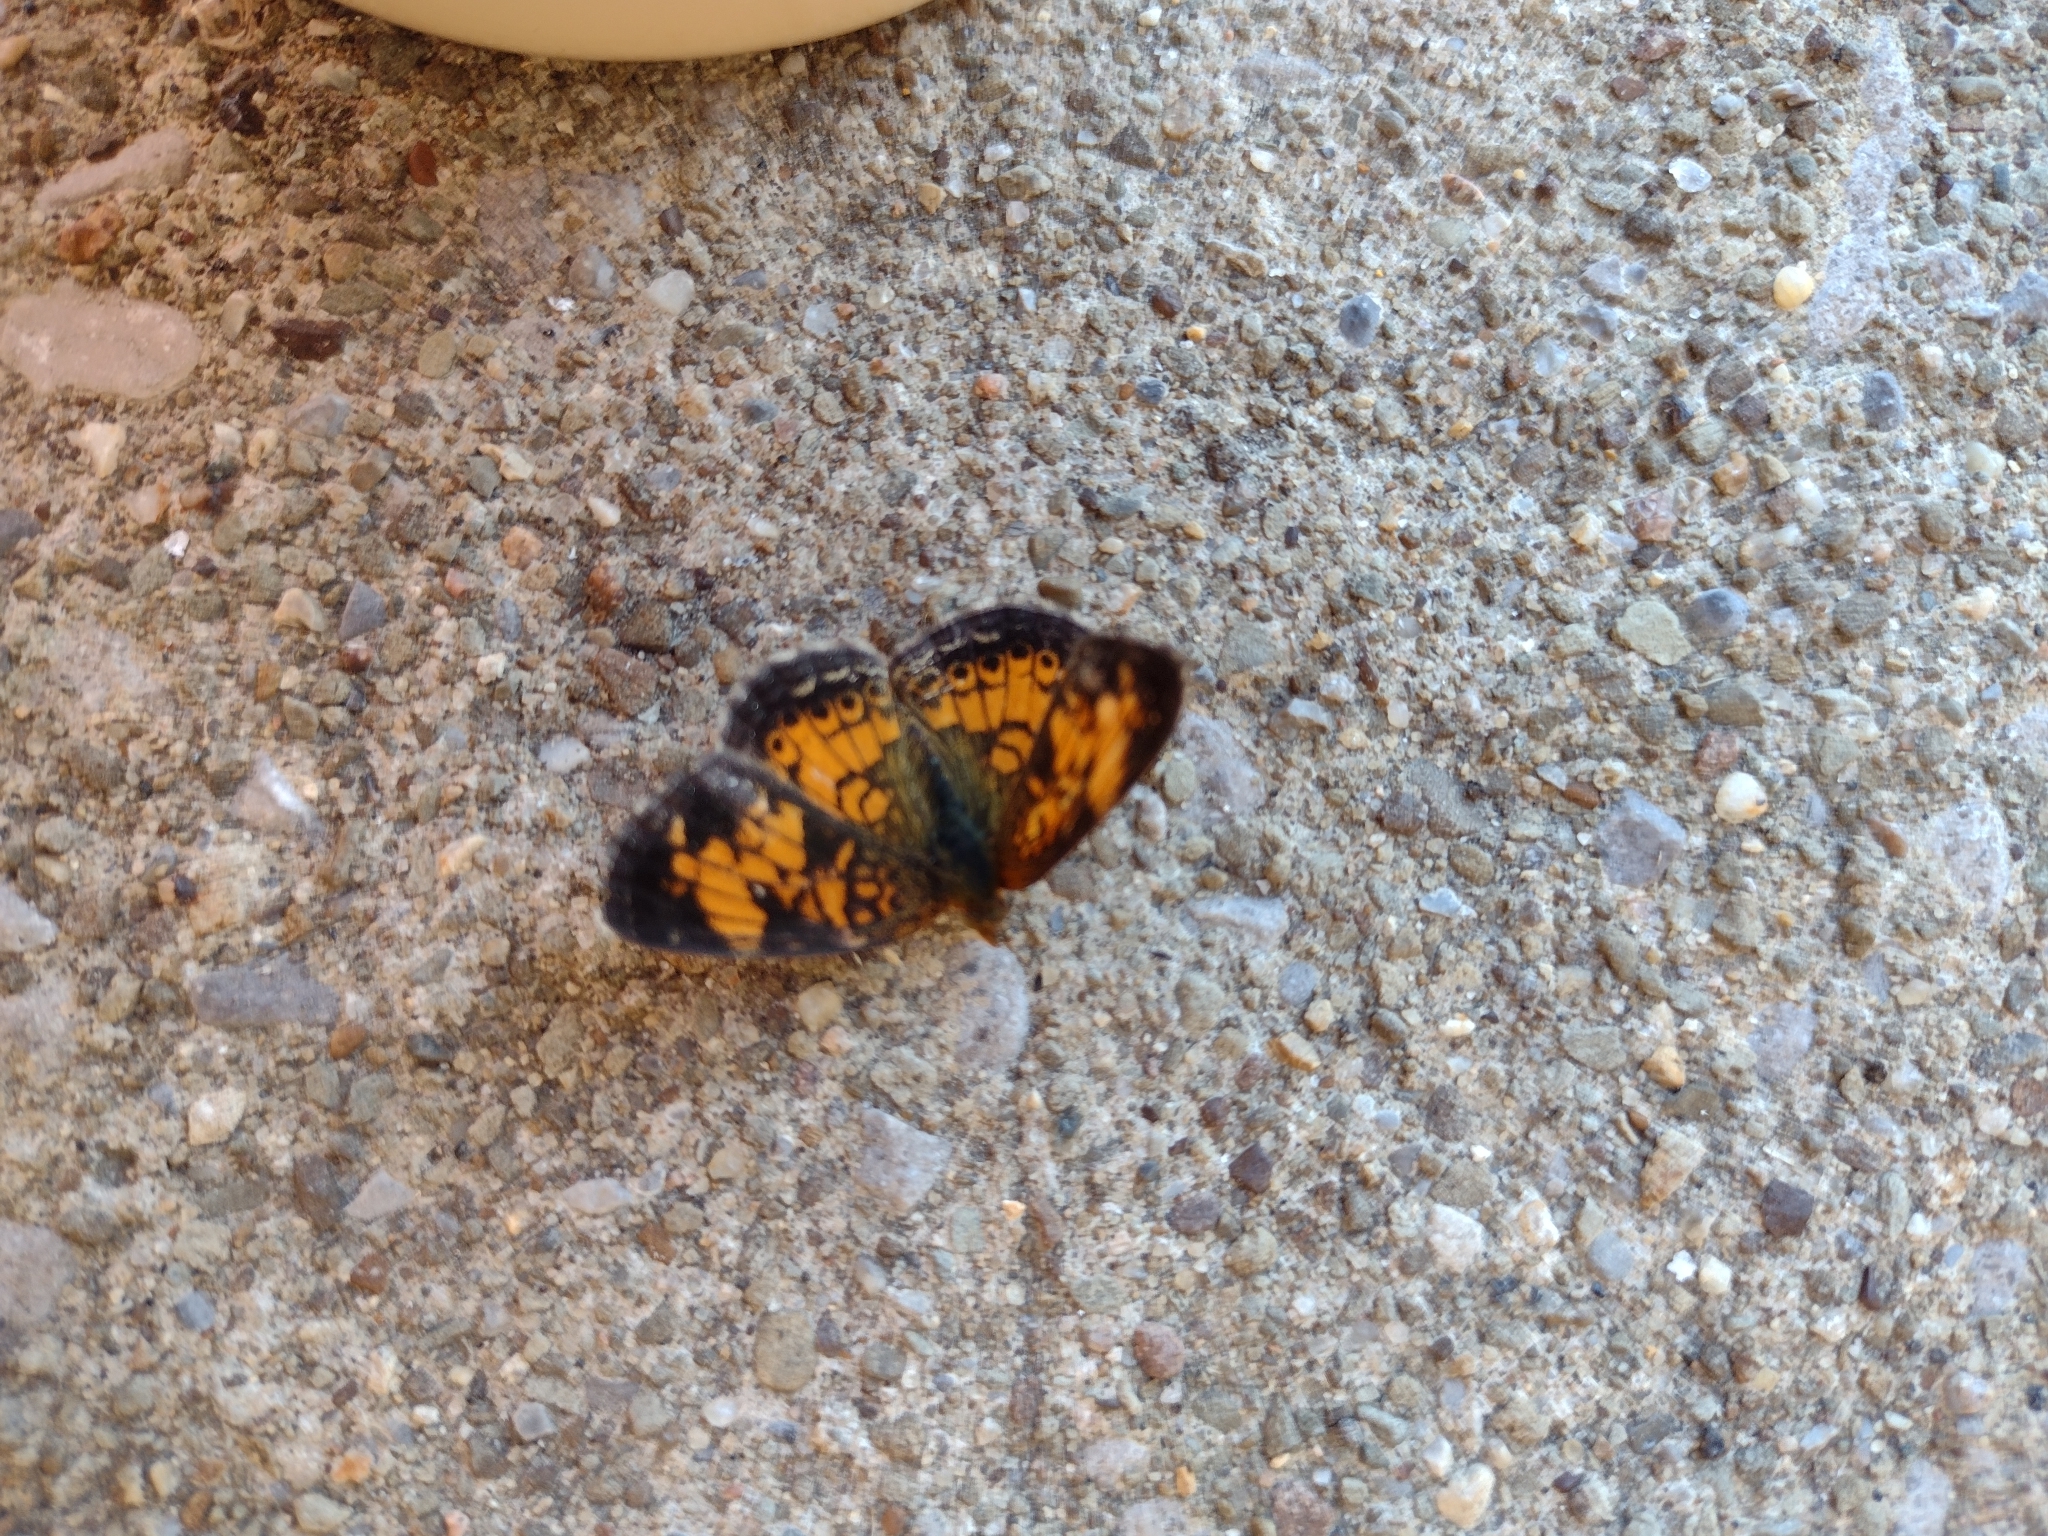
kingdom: Animalia
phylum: Arthropoda
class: Insecta
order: Lepidoptera
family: Nymphalidae
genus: Phyciodes
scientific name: Phyciodes tharos
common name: Pearl crescent
